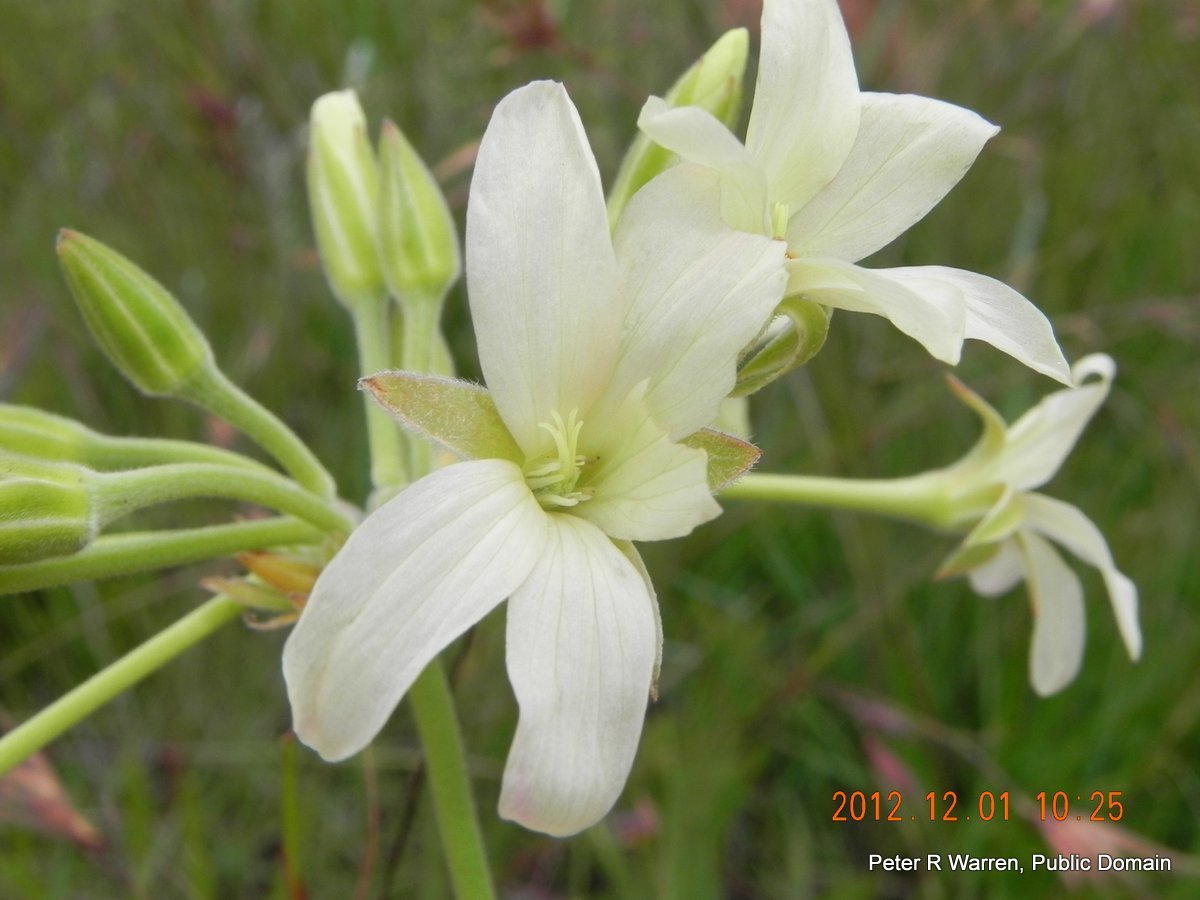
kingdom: Plantae
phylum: Tracheophyta
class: Magnoliopsida
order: Geraniales
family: Geraniaceae
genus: Pelargonium
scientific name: Pelargonium luridum
